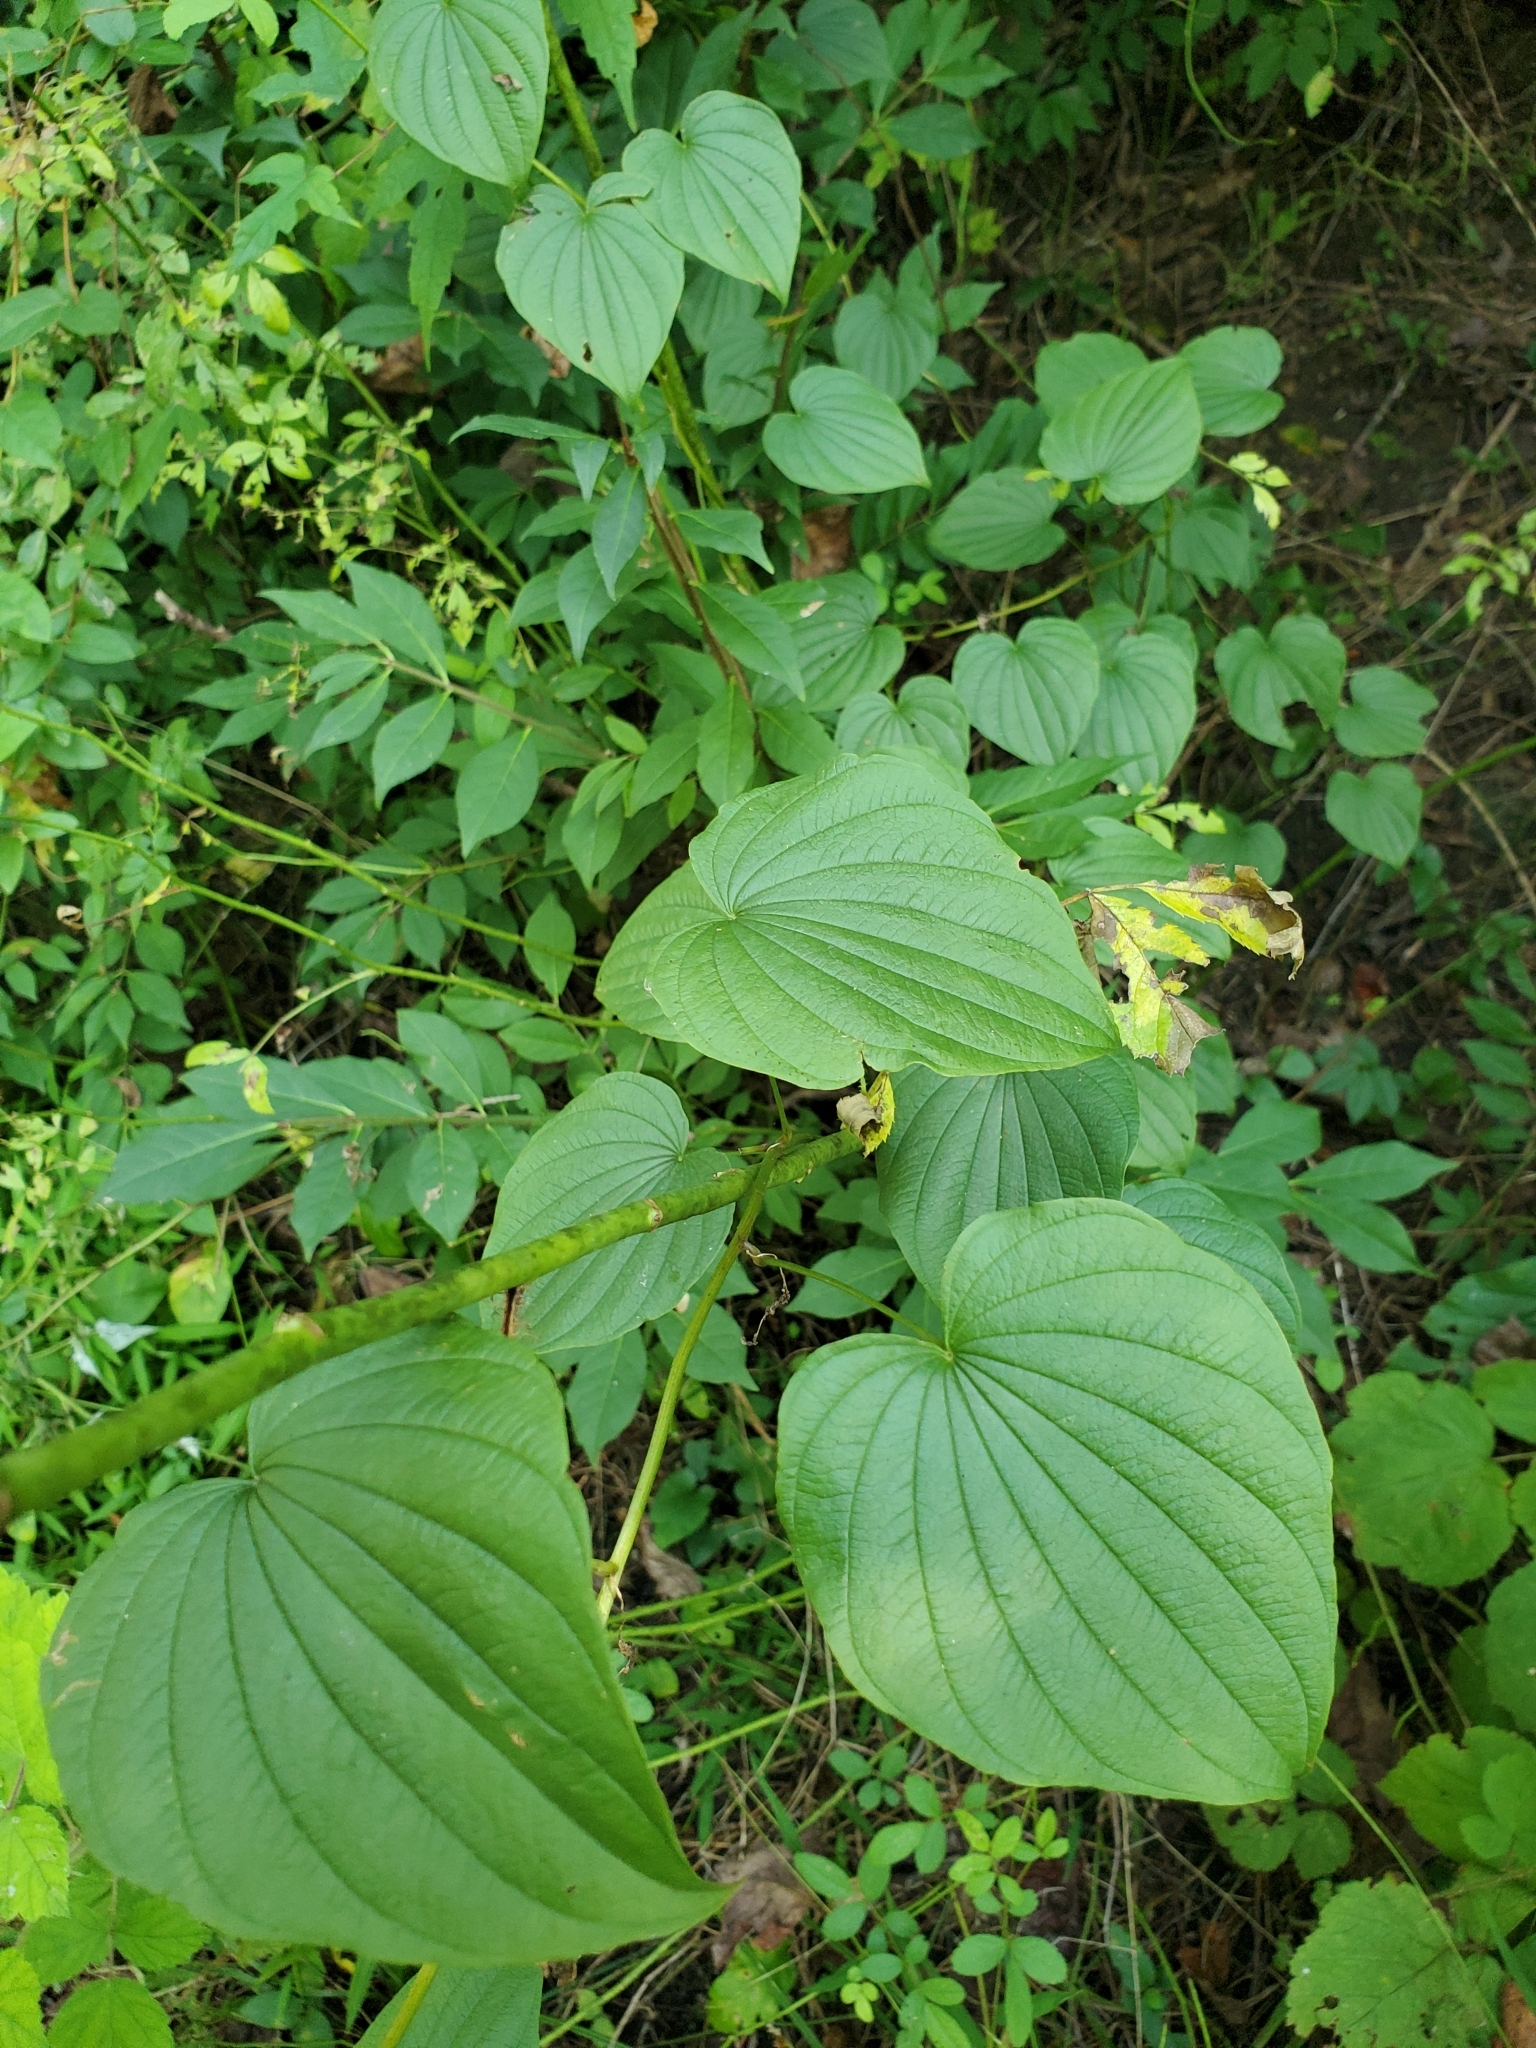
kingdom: Plantae
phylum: Tracheophyta
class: Liliopsida
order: Dioscoreales
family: Dioscoreaceae
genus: Dioscorea
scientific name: Dioscorea villosa
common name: Wild yam
